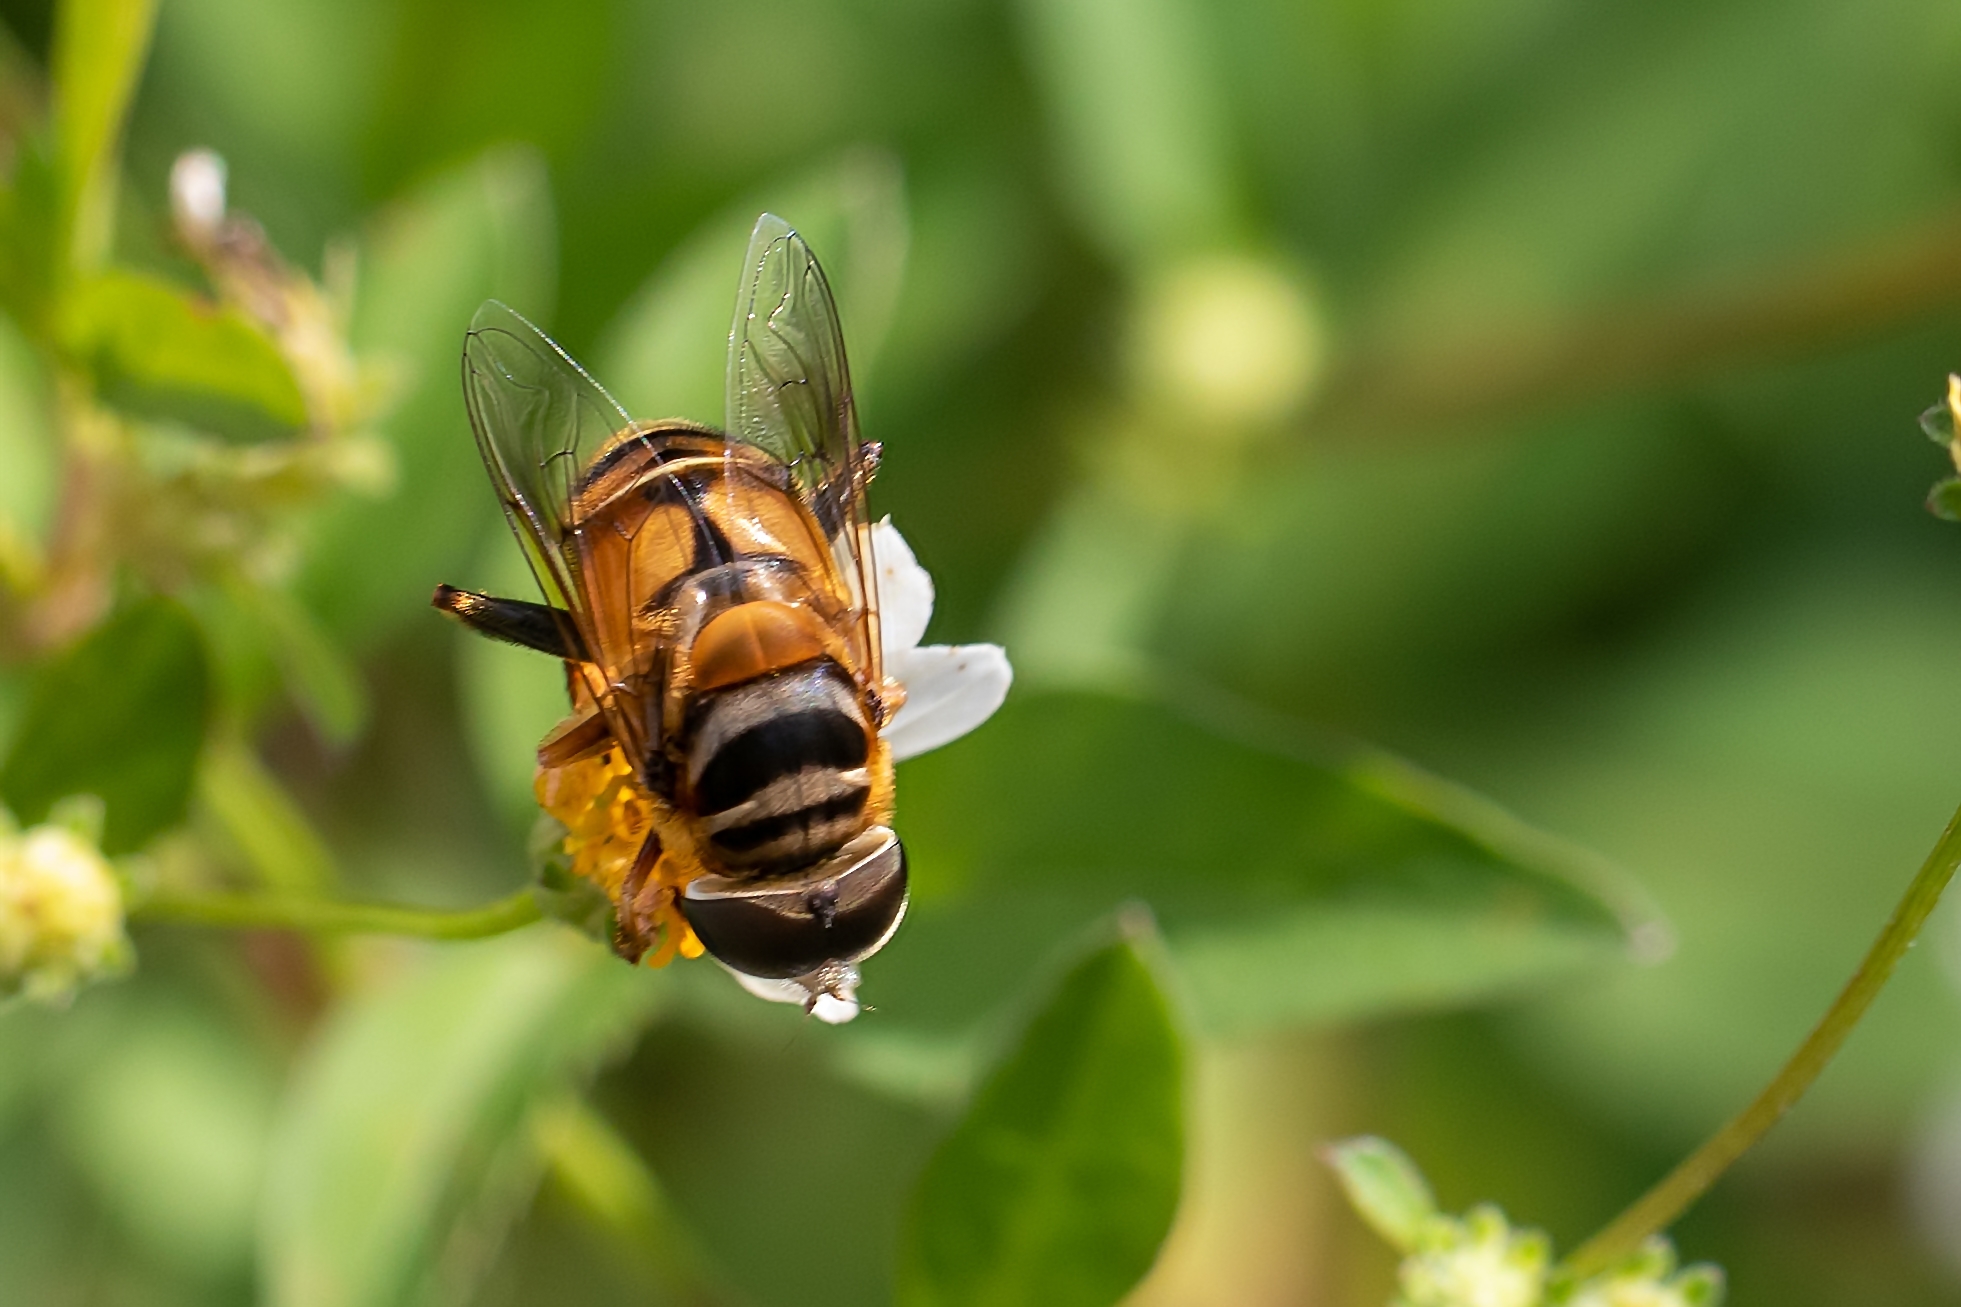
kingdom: Animalia
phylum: Arthropoda
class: Insecta
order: Diptera
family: Syrphidae
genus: Palpada
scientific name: Palpada vinetorum
